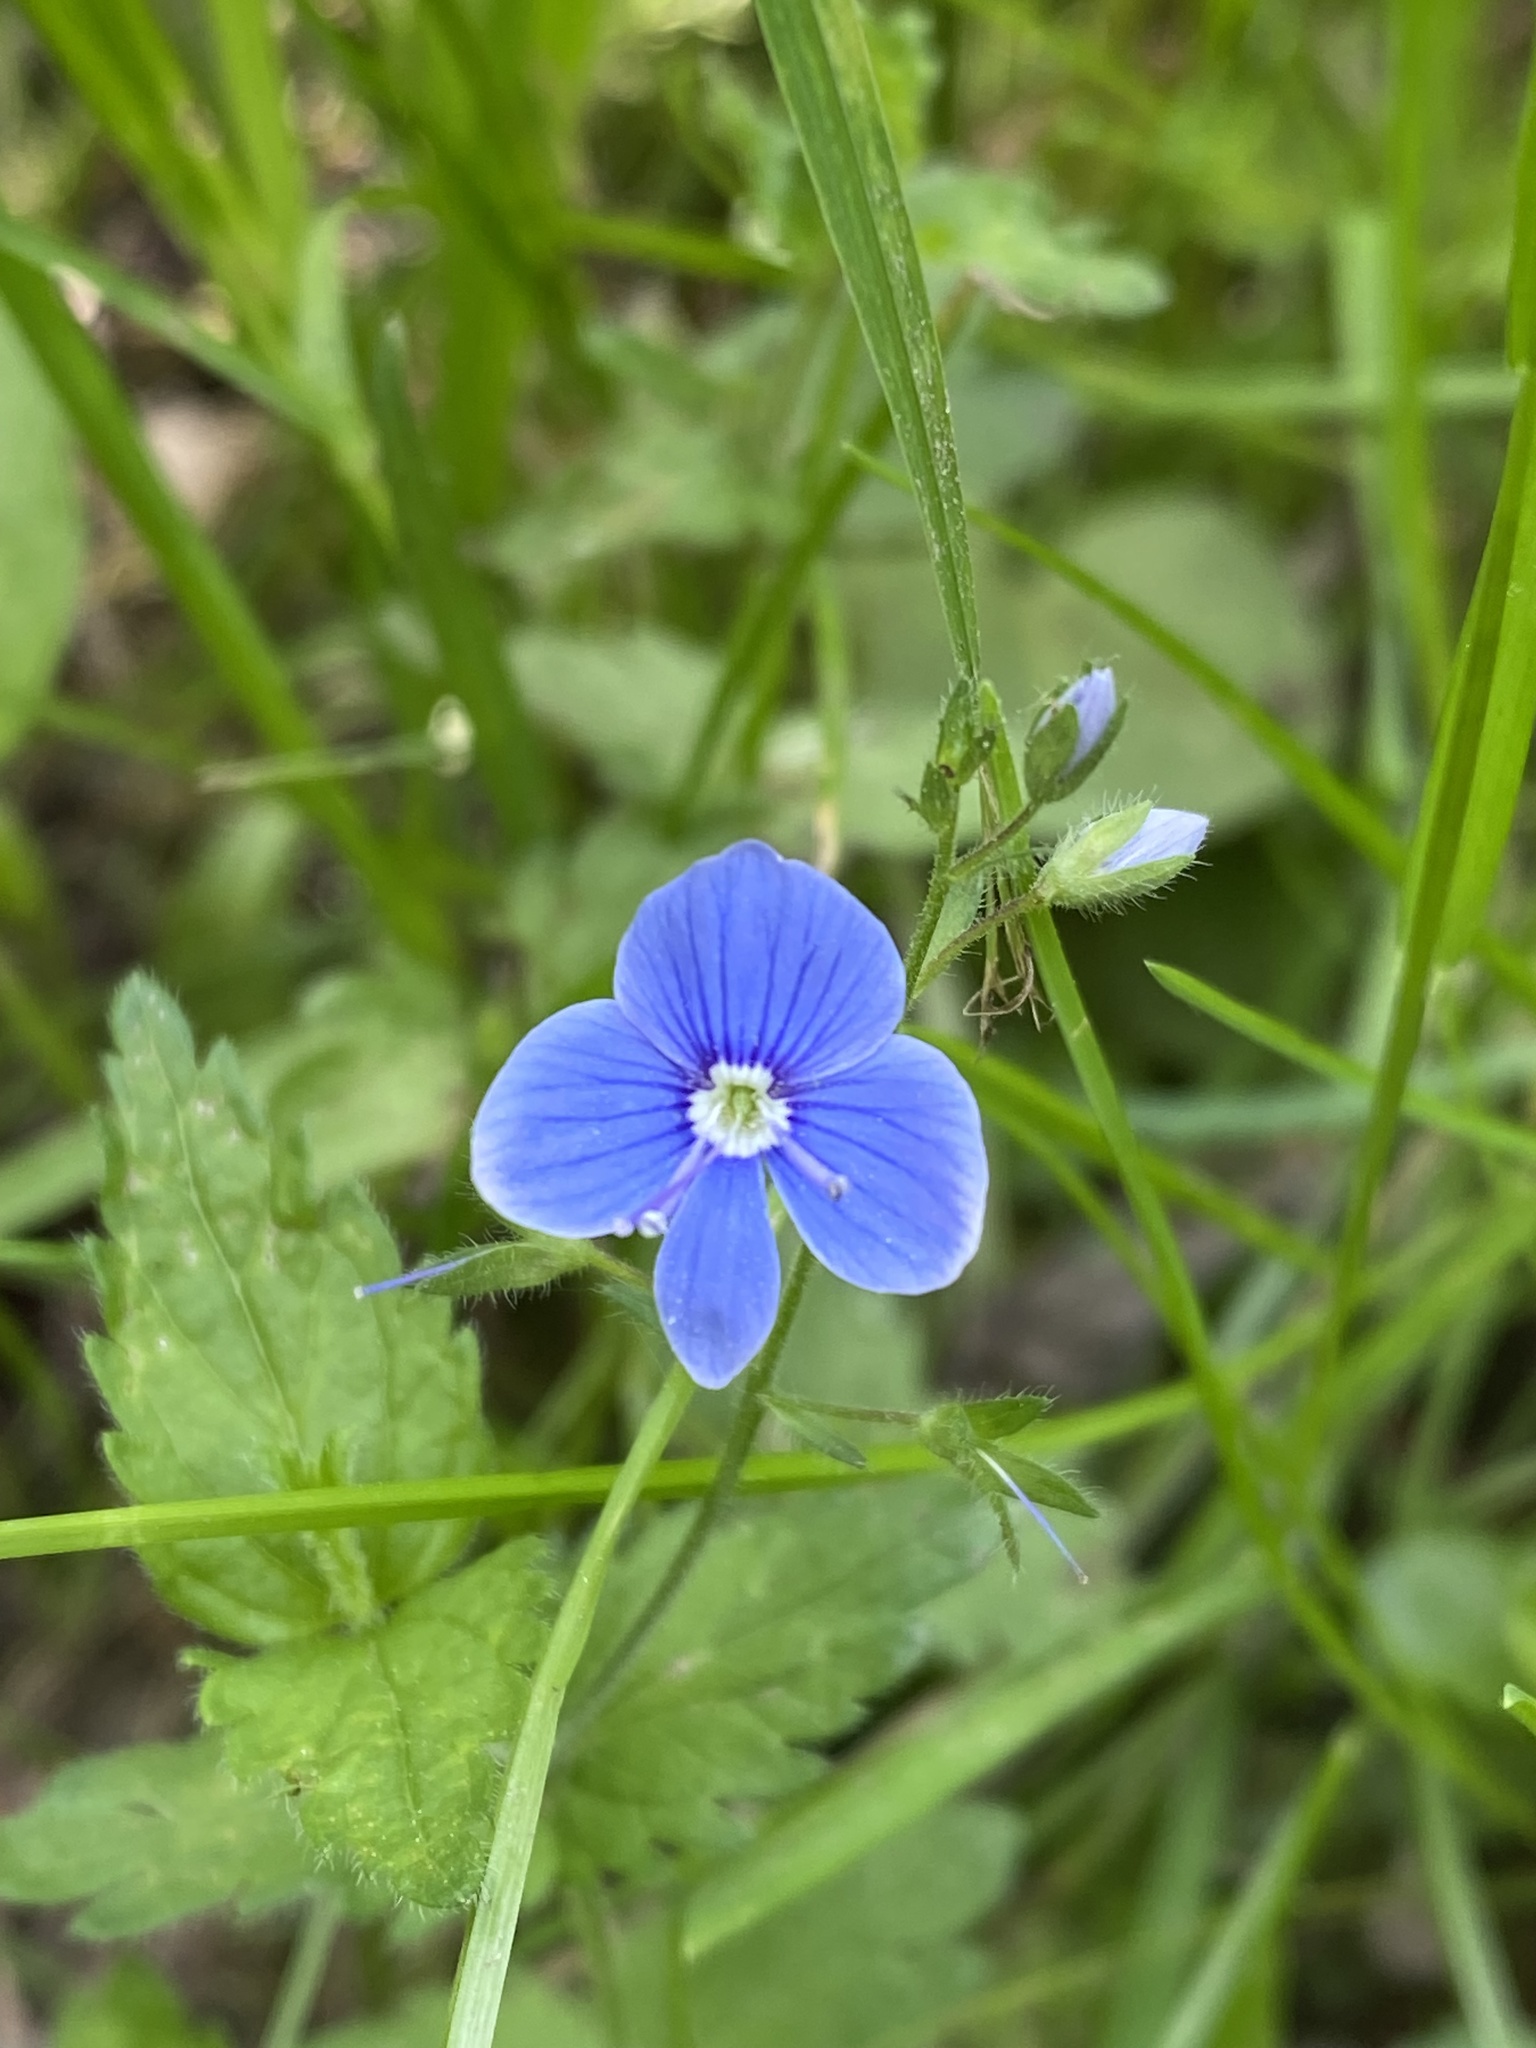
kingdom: Plantae
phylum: Tracheophyta
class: Magnoliopsida
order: Lamiales
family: Plantaginaceae
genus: Veronica
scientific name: Veronica chamaedrys
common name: Germander speedwell
